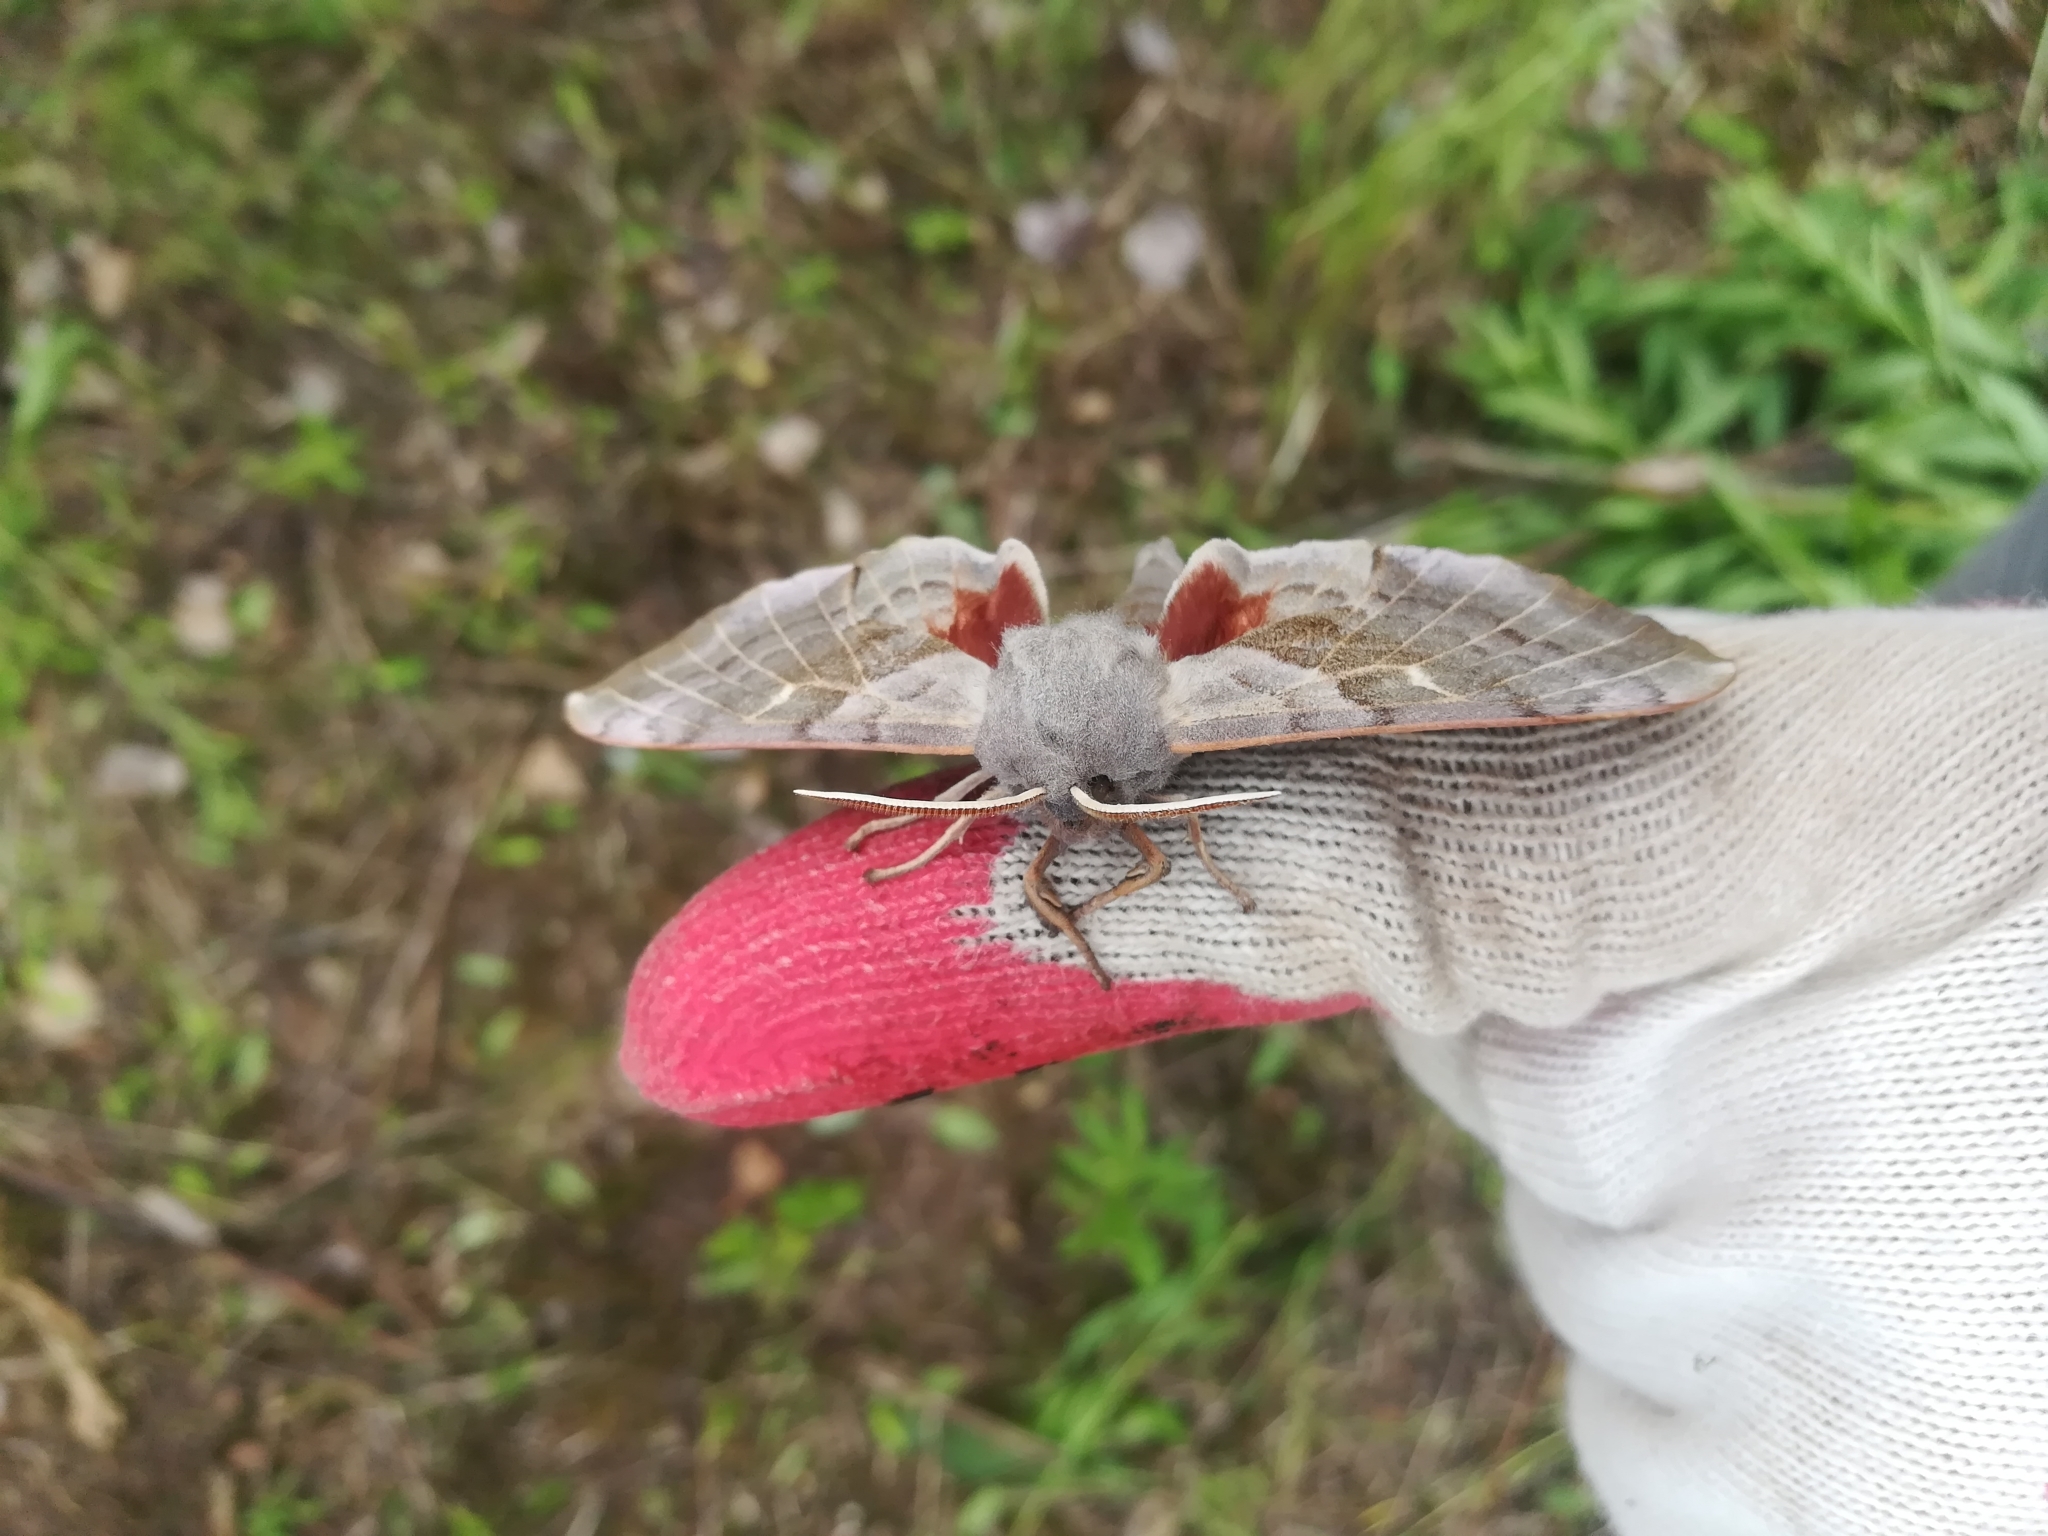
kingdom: Animalia
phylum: Arthropoda
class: Insecta
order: Lepidoptera
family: Sphingidae
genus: Laothoe
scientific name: Laothoe populi
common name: Poplar hawk-moth
